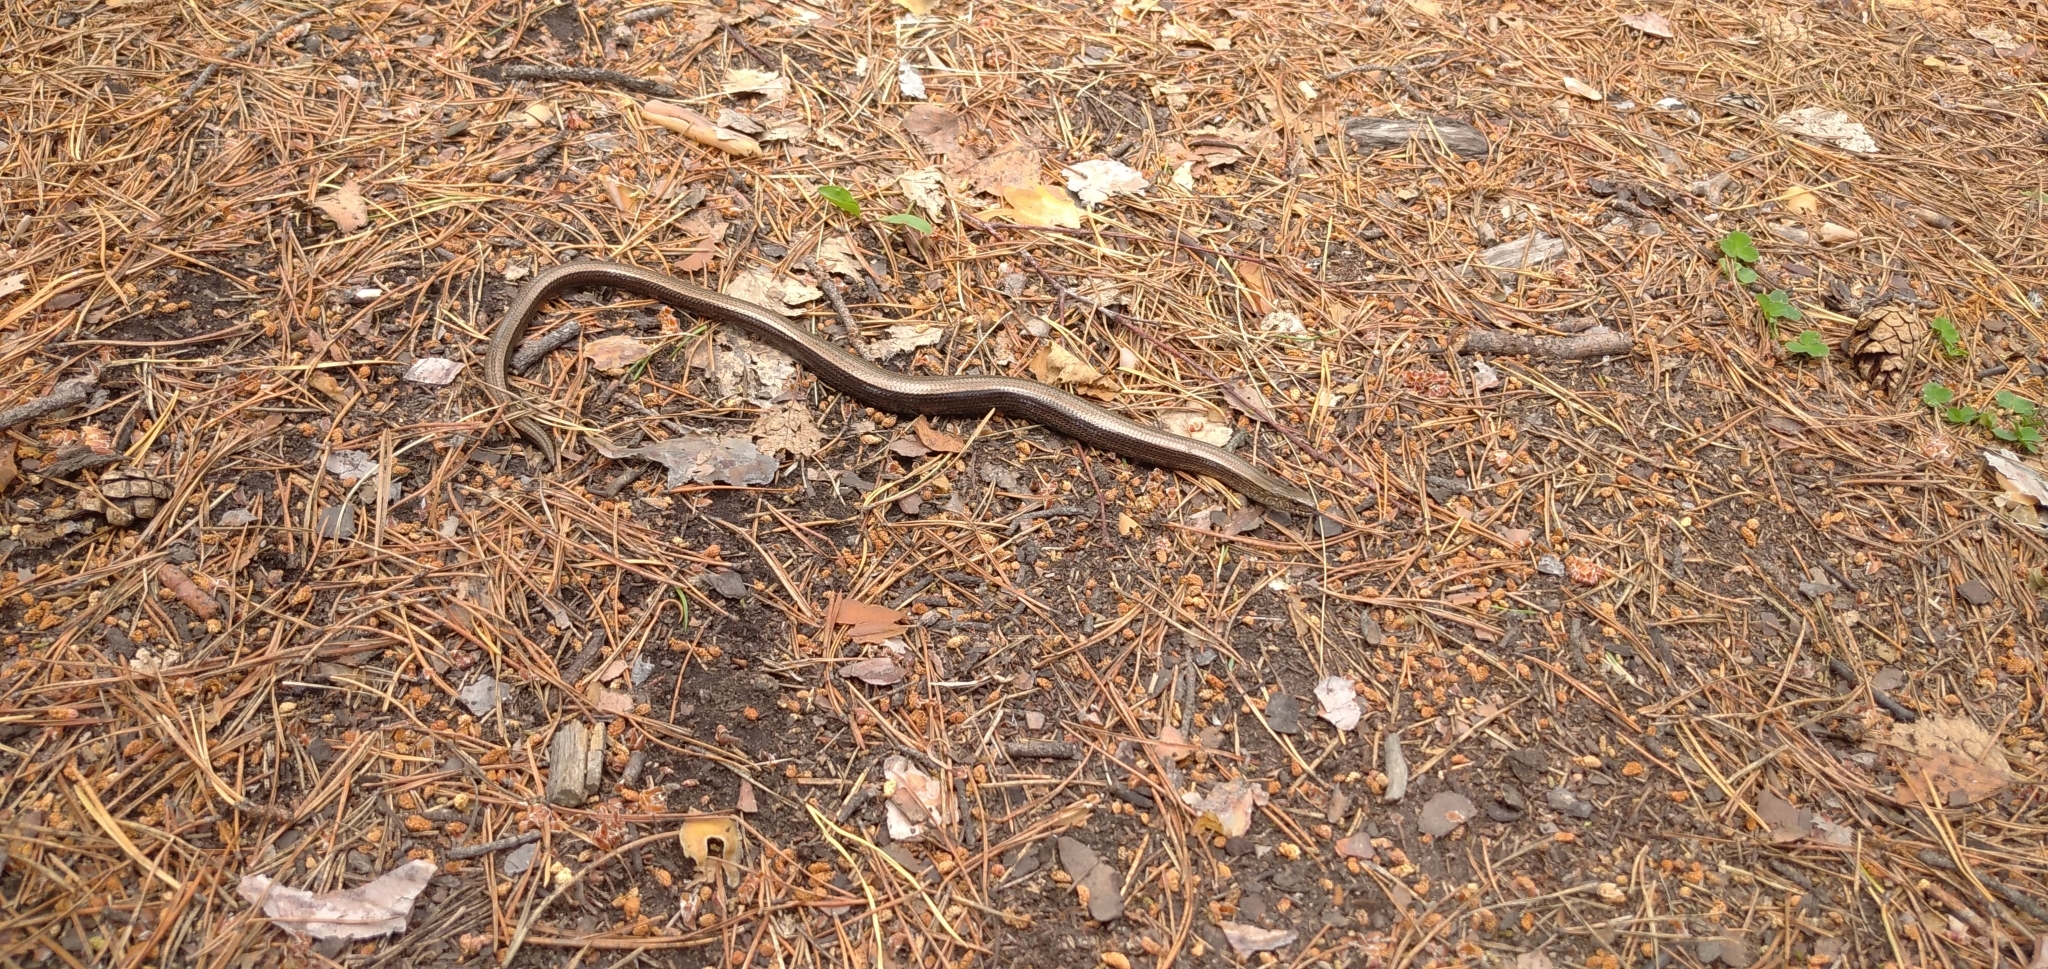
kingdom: Animalia
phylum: Chordata
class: Squamata
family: Anguidae
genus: Anguis
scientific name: Anguis colchica
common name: Slow worm
